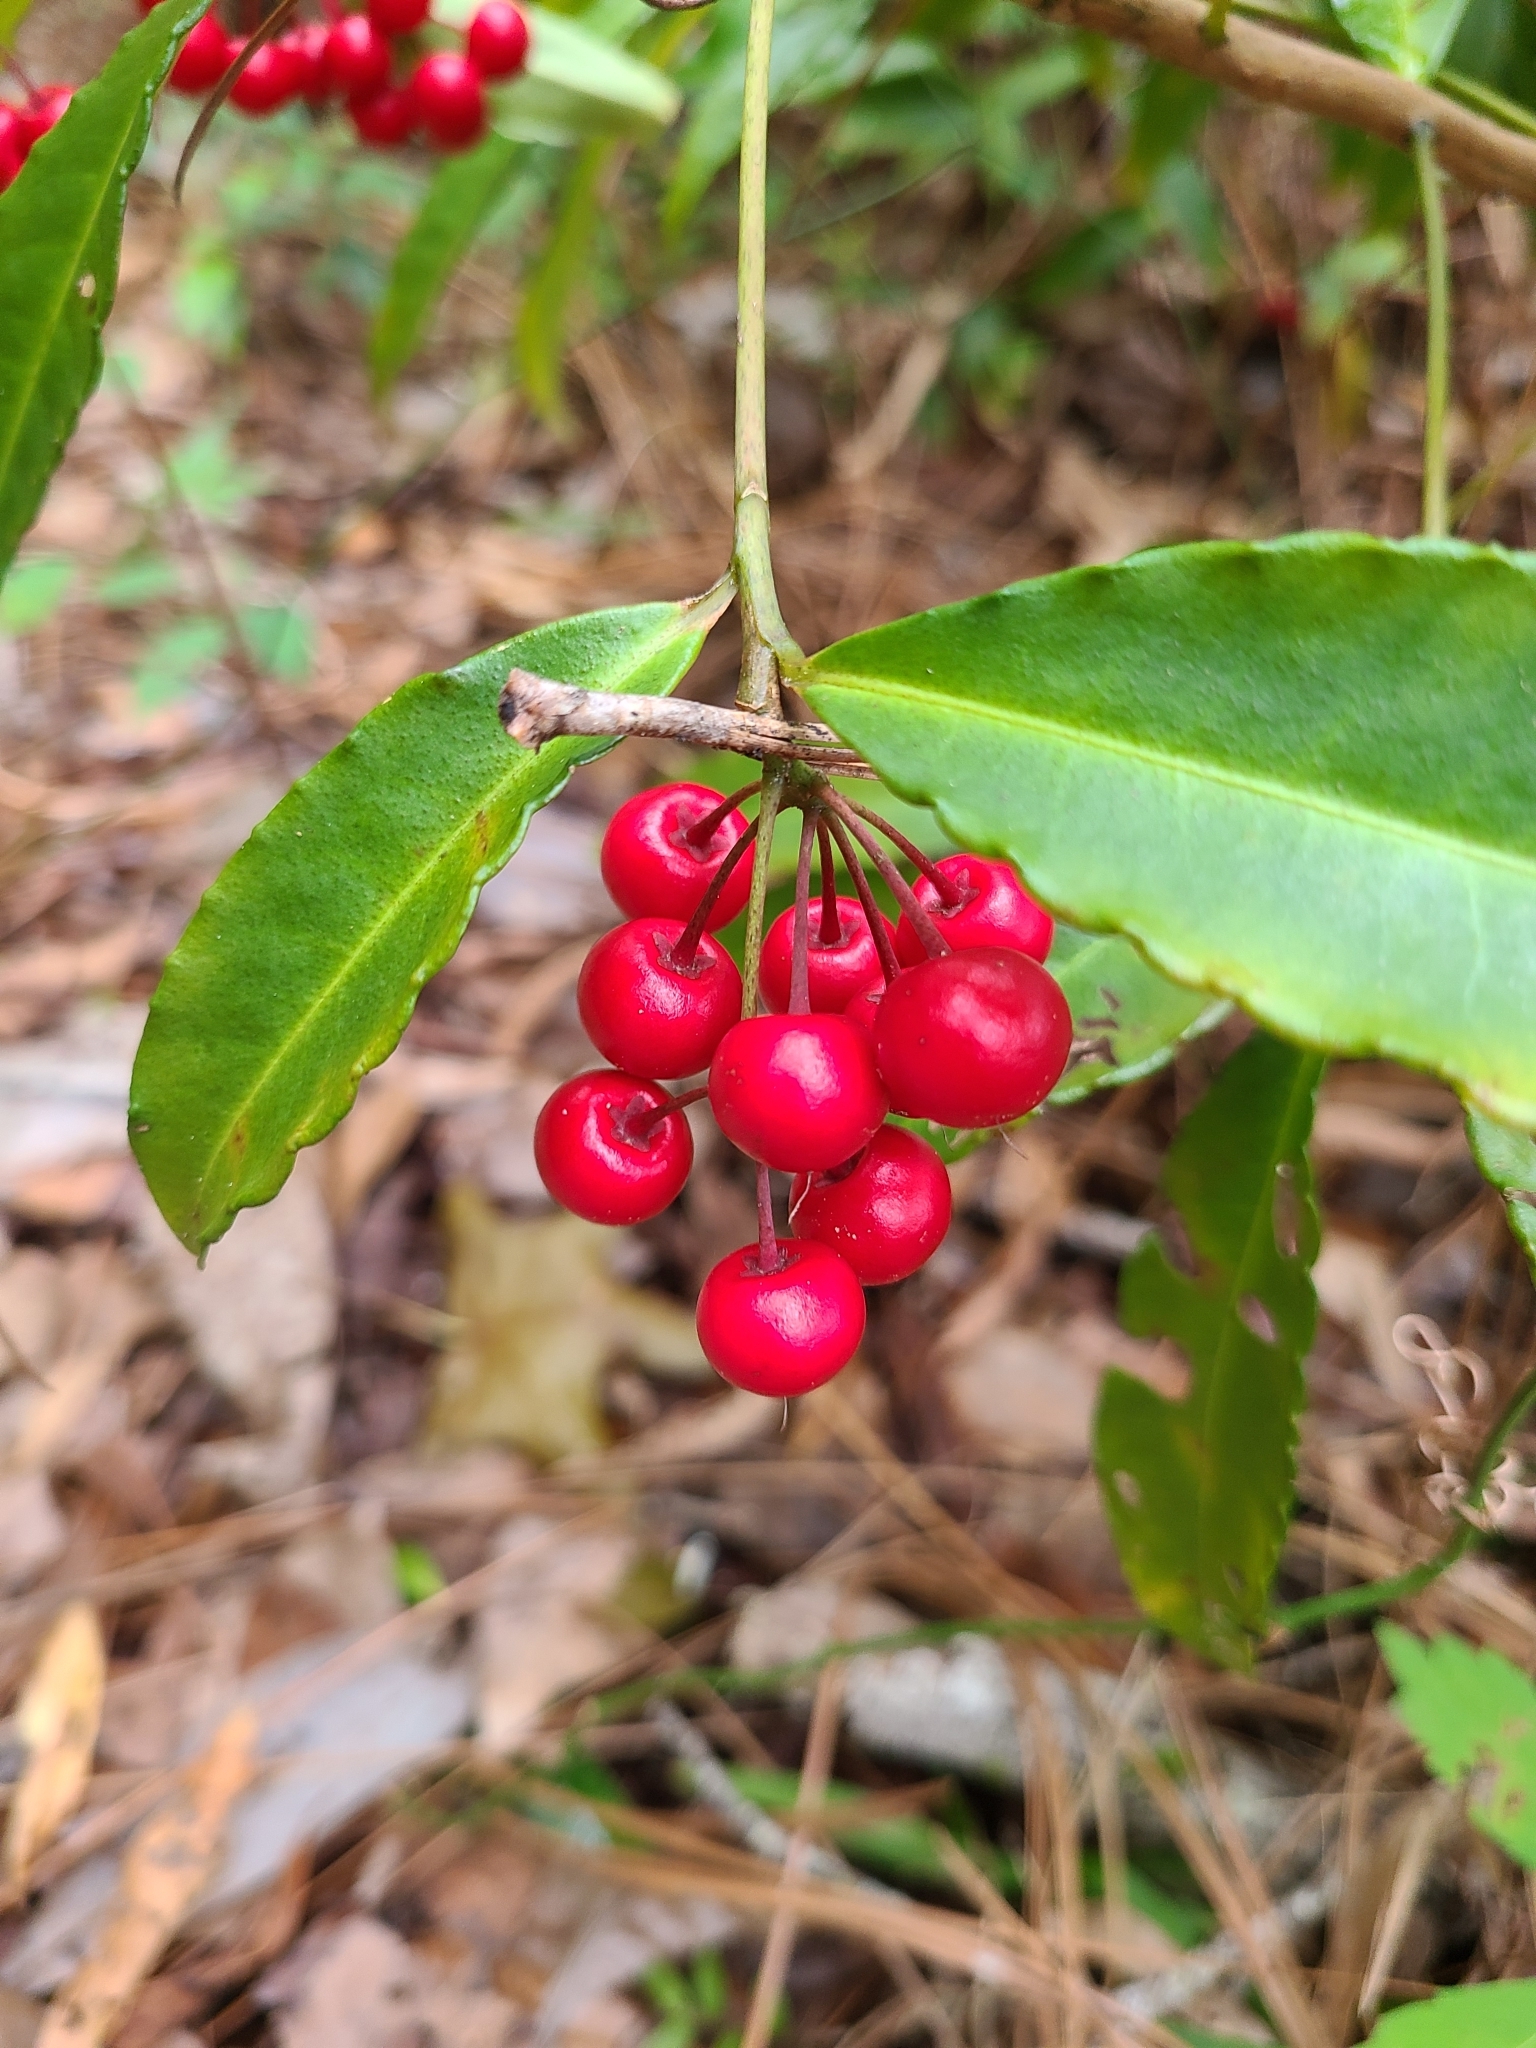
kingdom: Plantae
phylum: Tracheophyta
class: Magnoliopsida
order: Ericales
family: Primulaceae
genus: Ardisia
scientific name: Ardisia crenata
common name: Hen's eyes
